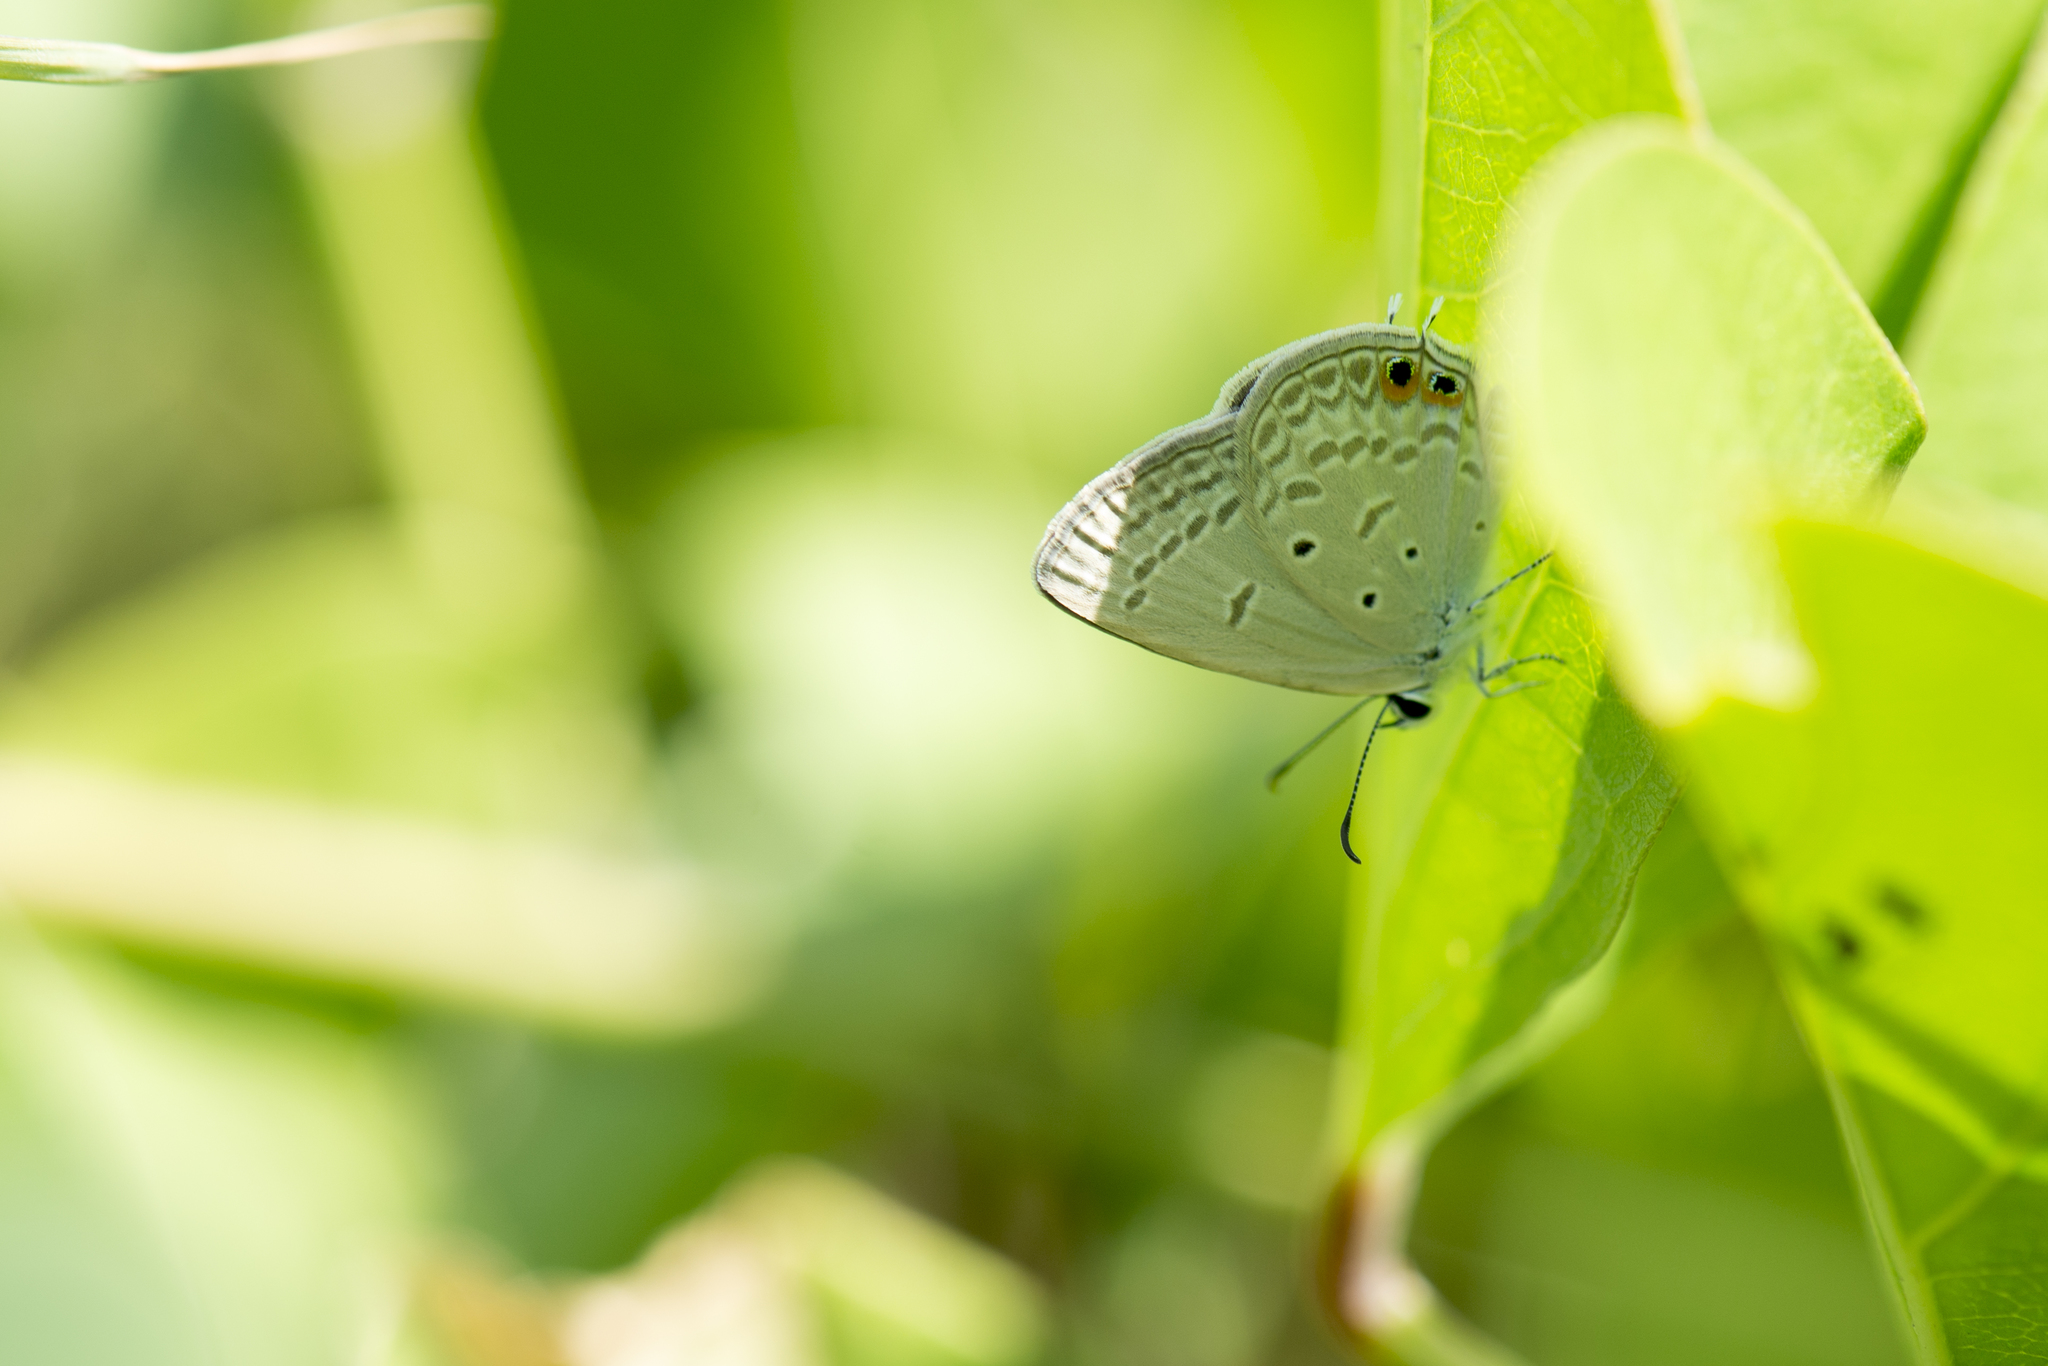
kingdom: Animalia
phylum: Arthropoda
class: Insecta
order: Lepidoptera
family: Lycaenidae
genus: Euchrysops
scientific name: Euchrysops cnejus
